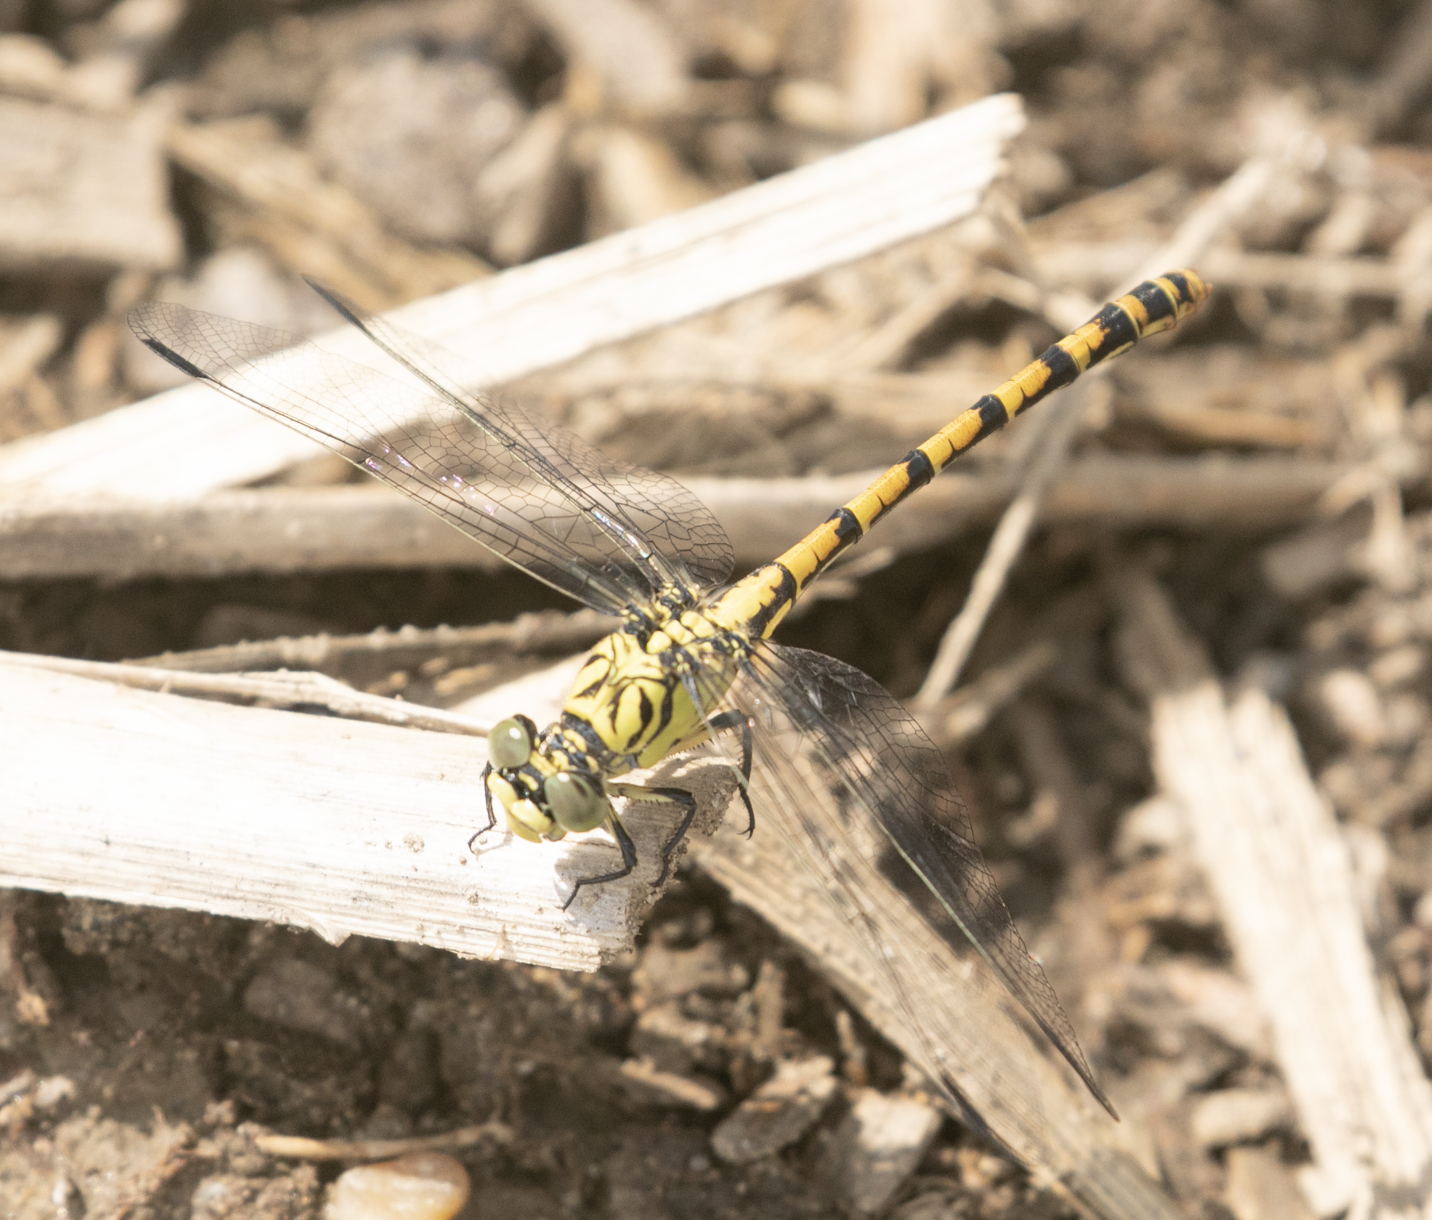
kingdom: Animalia
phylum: Arthropoda
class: Insecta
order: Odonata
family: Gomphidae
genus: Onychogomphus
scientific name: Onychogomphus forcipatus
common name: Small pincertail
